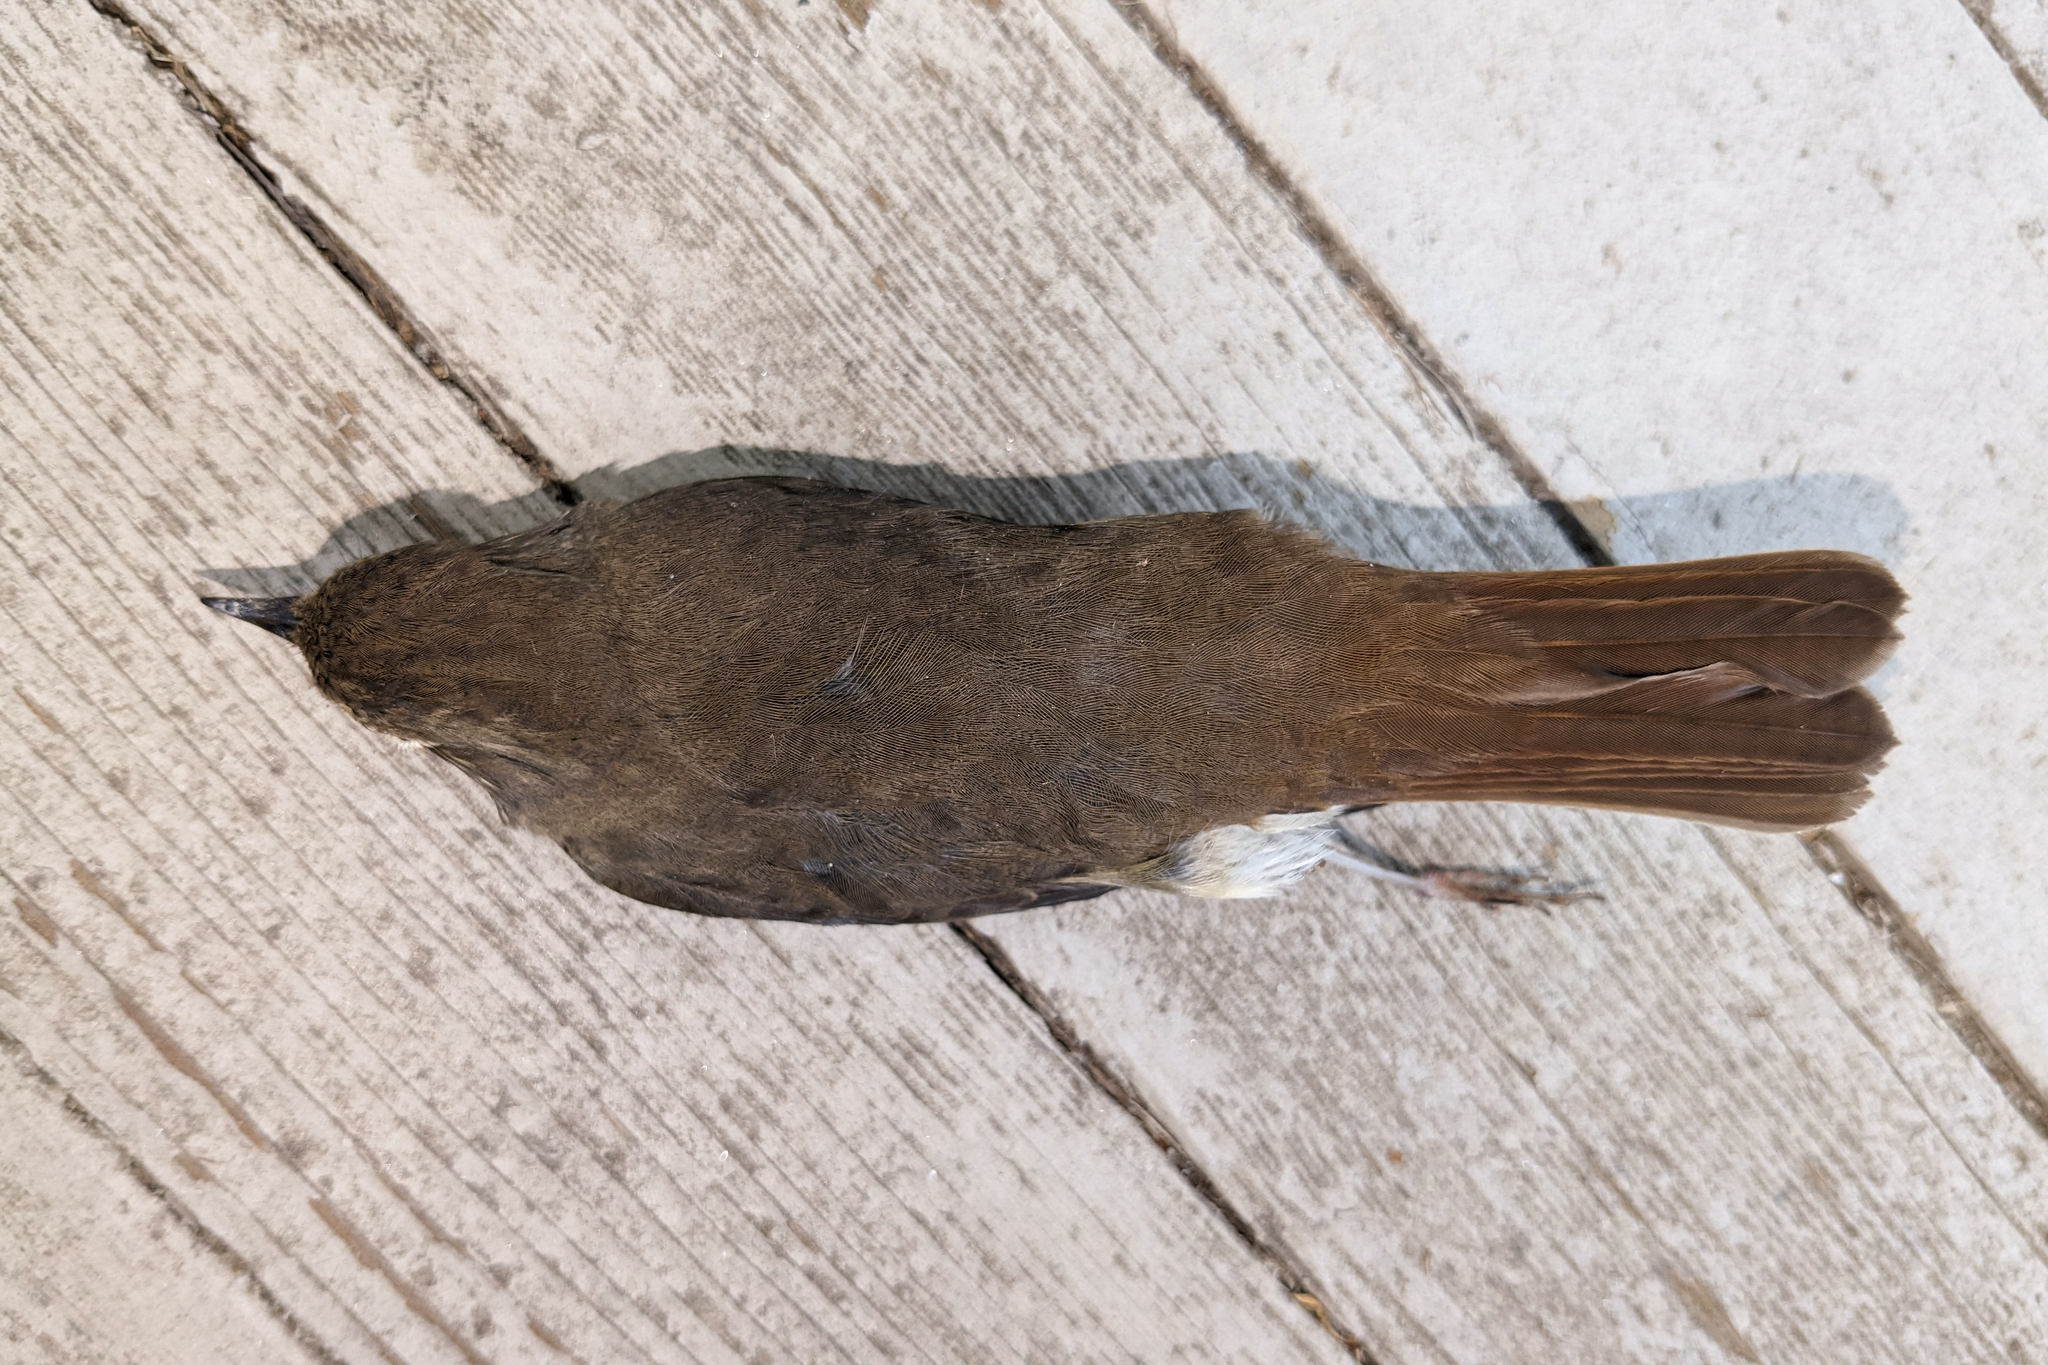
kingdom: Animalia
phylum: Chordata
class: Aves
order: Passeriformes
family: Turdidae
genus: Catharus
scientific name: Catharus guttatus
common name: Hermit thrush
